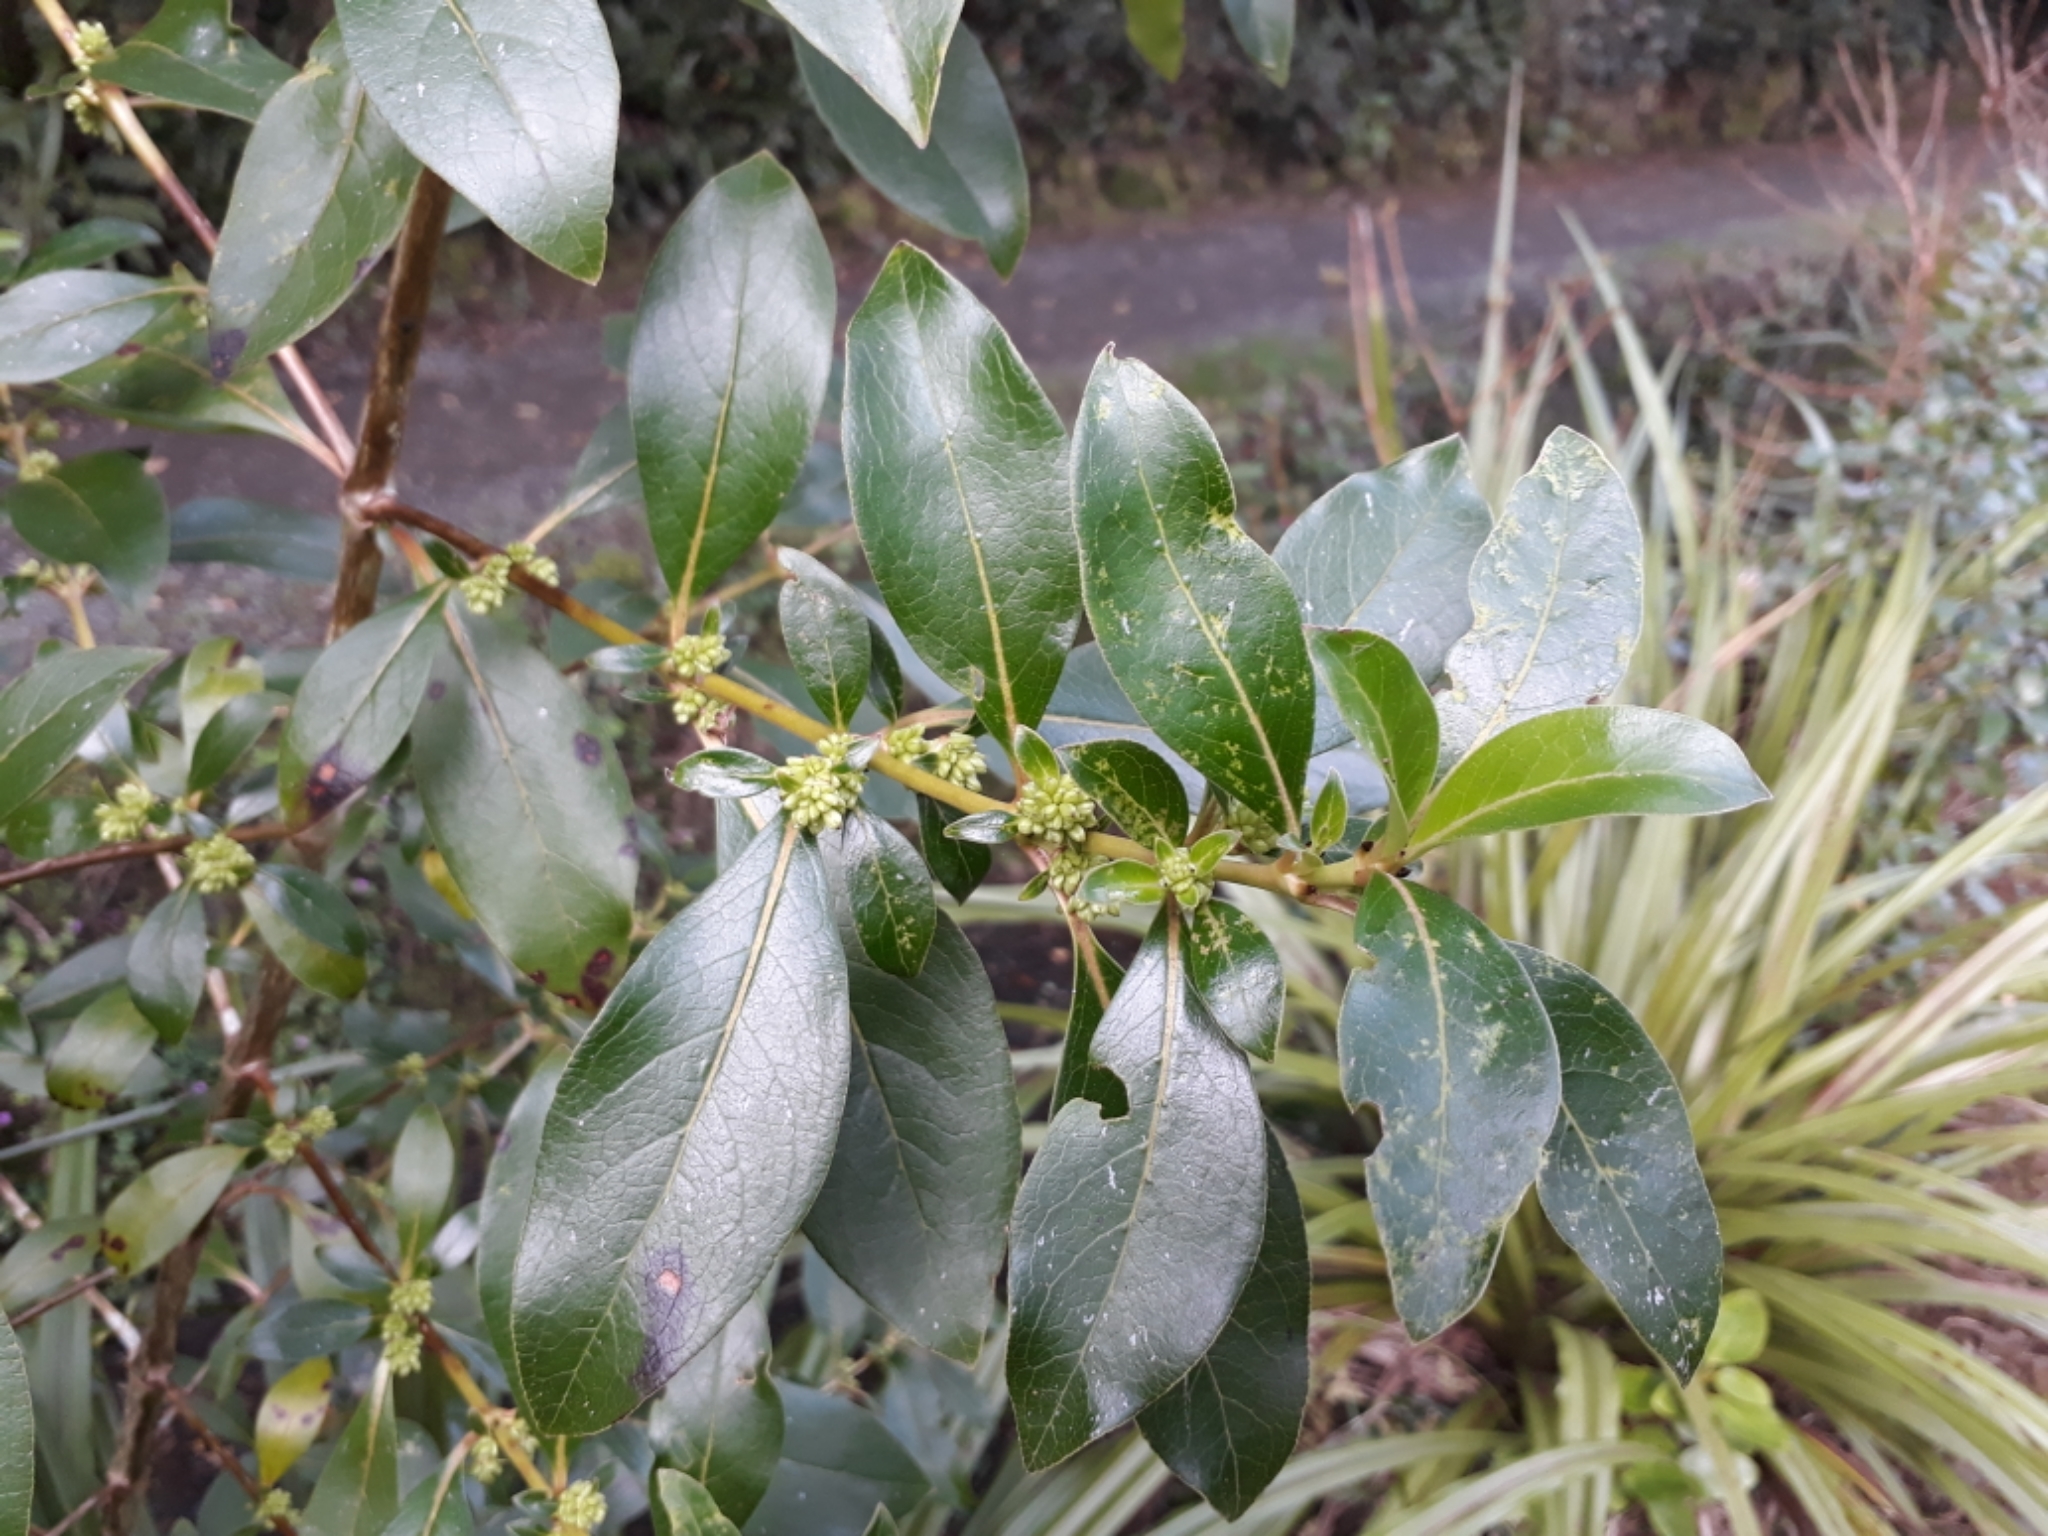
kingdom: Plantae
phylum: Tracheophyta
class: Magnoliopsida
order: Gentianales
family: Rubiaceae
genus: Coprosma
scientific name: Coprosma robusta
